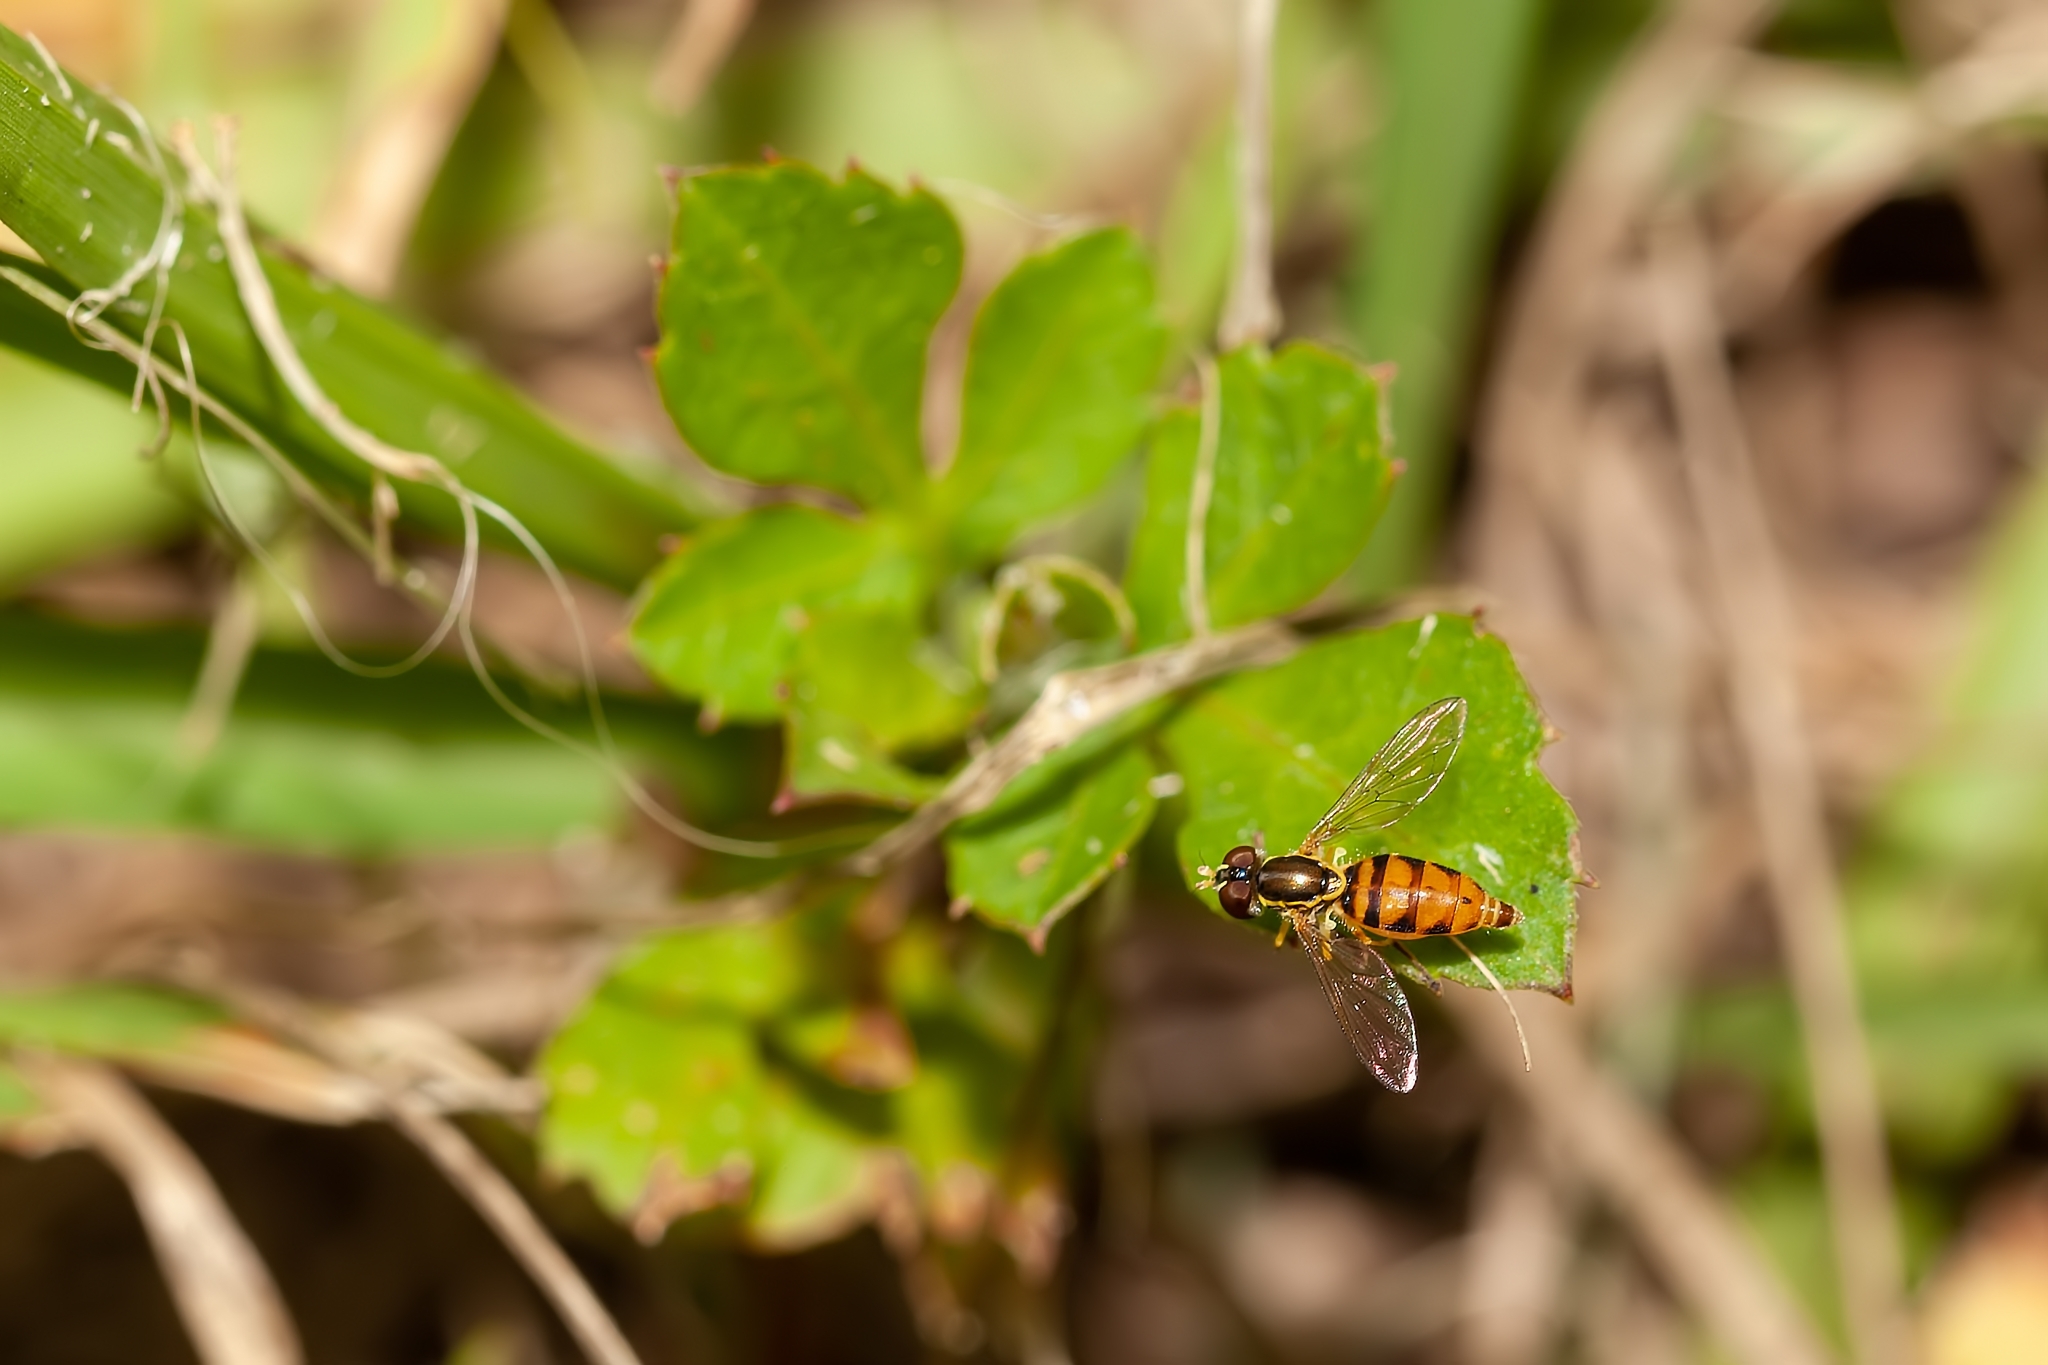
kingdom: Animalia
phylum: Arthropoda
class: Insecta
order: Diptera
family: Syrphidae
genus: Toxomerus
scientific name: Toxomerus floralis
